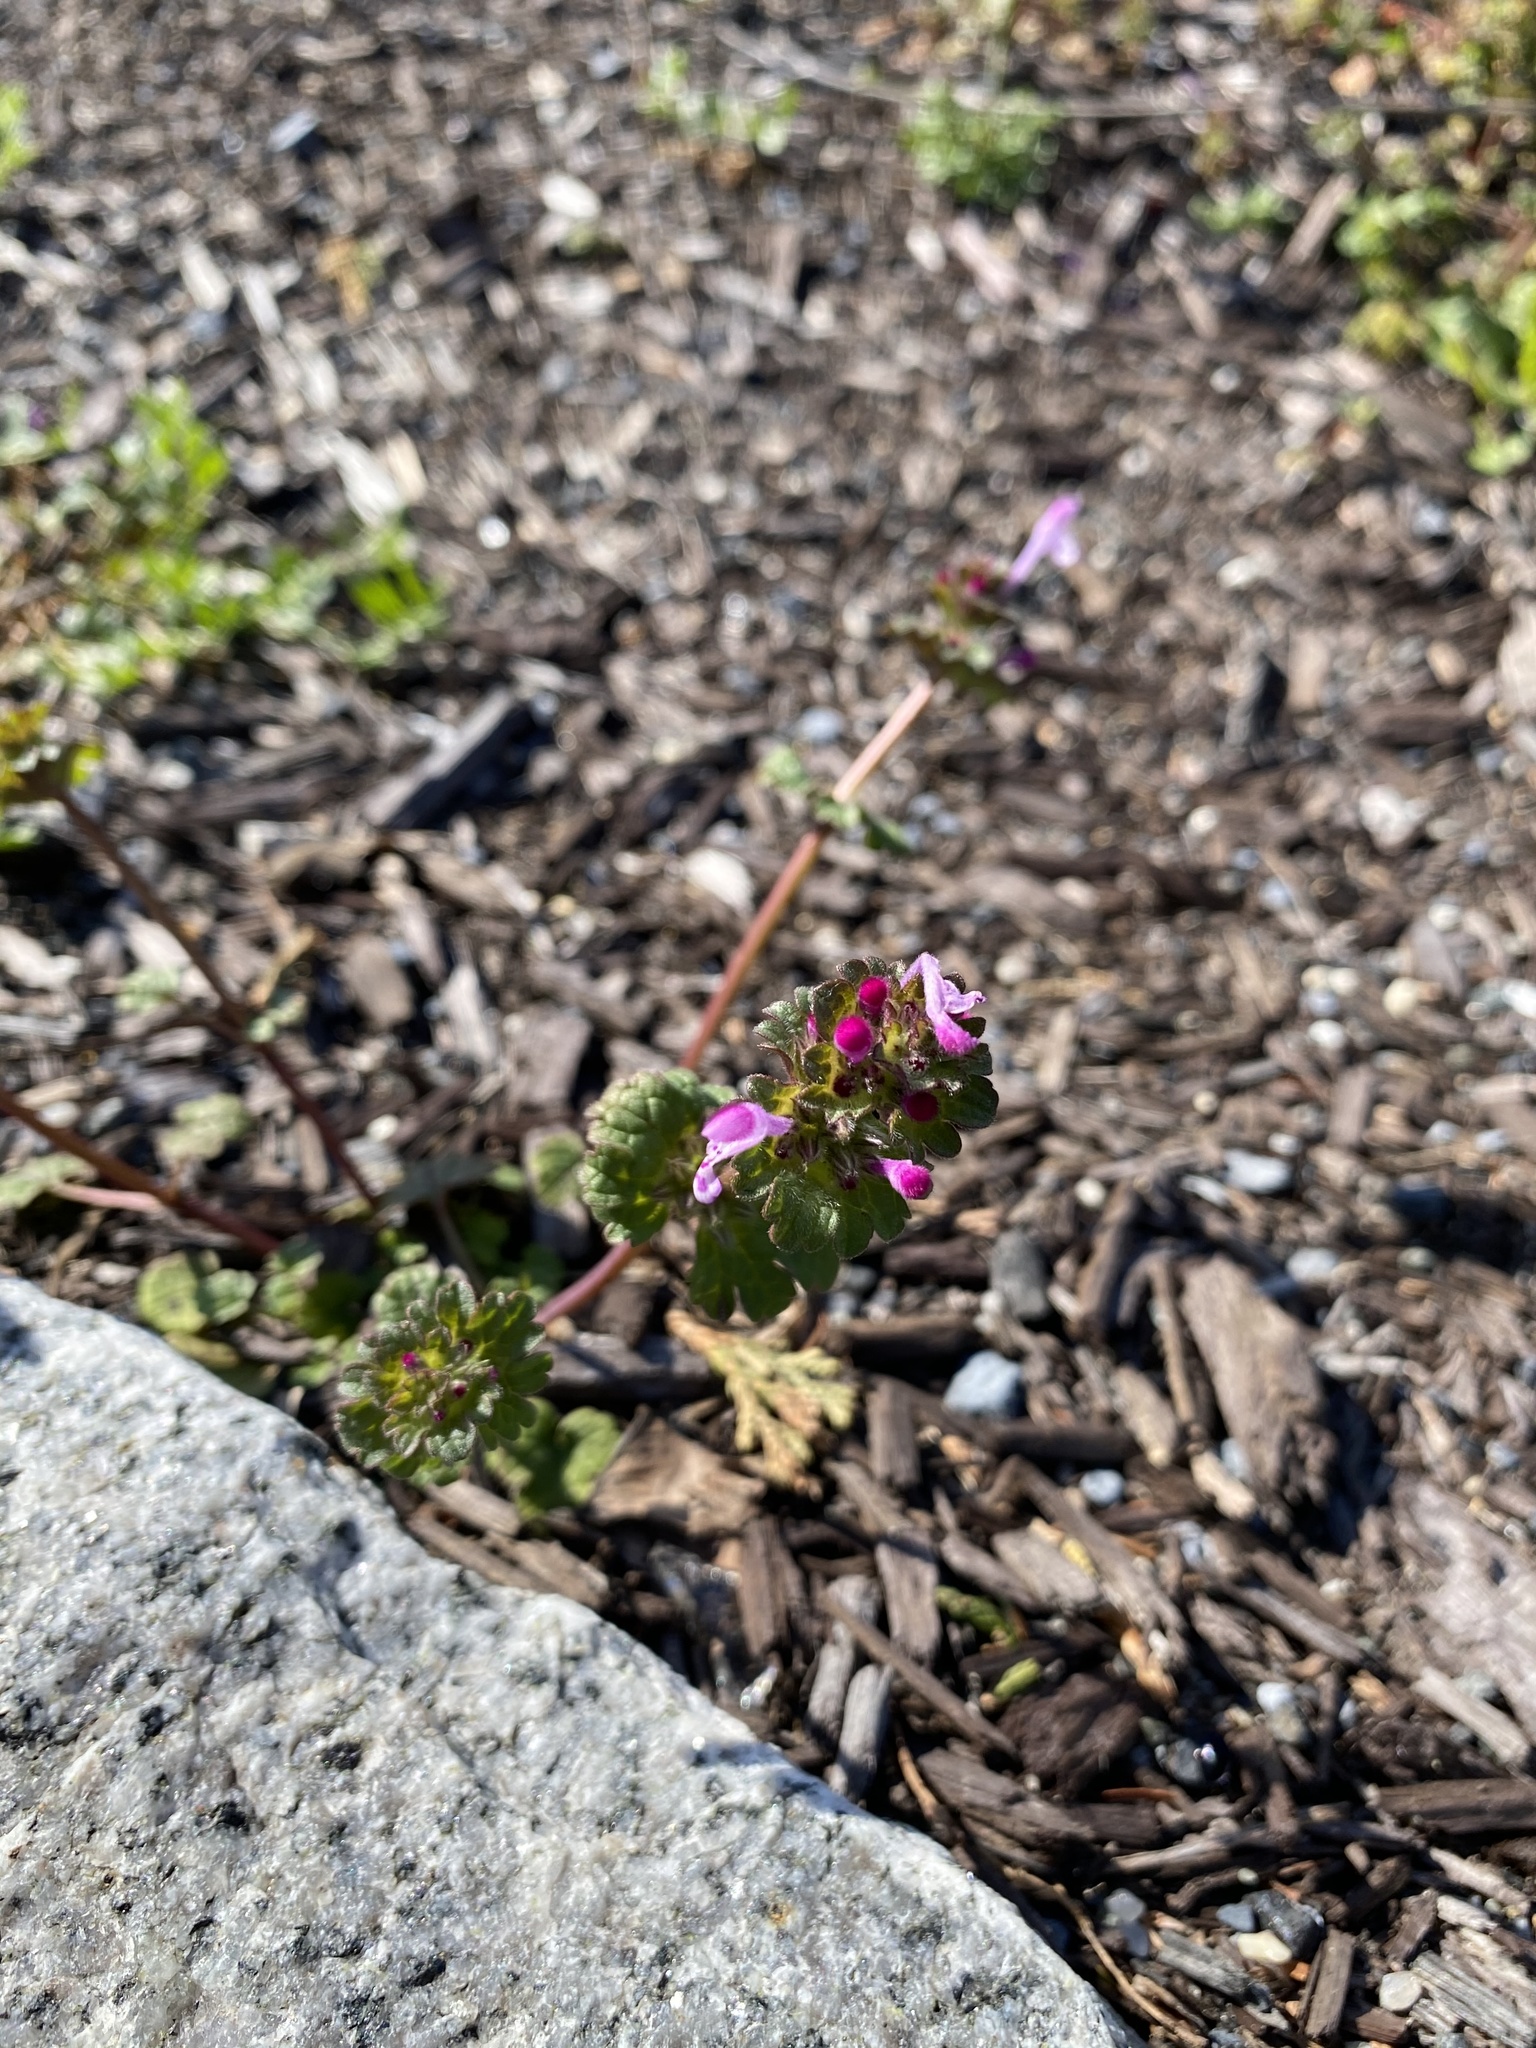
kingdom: Plantae
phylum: Tracheophyta
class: Magnoliopsida
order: Lamiales
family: Lamiaceae
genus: Lamium
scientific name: Lamium amplexicaule
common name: Henbit dead-nettle
